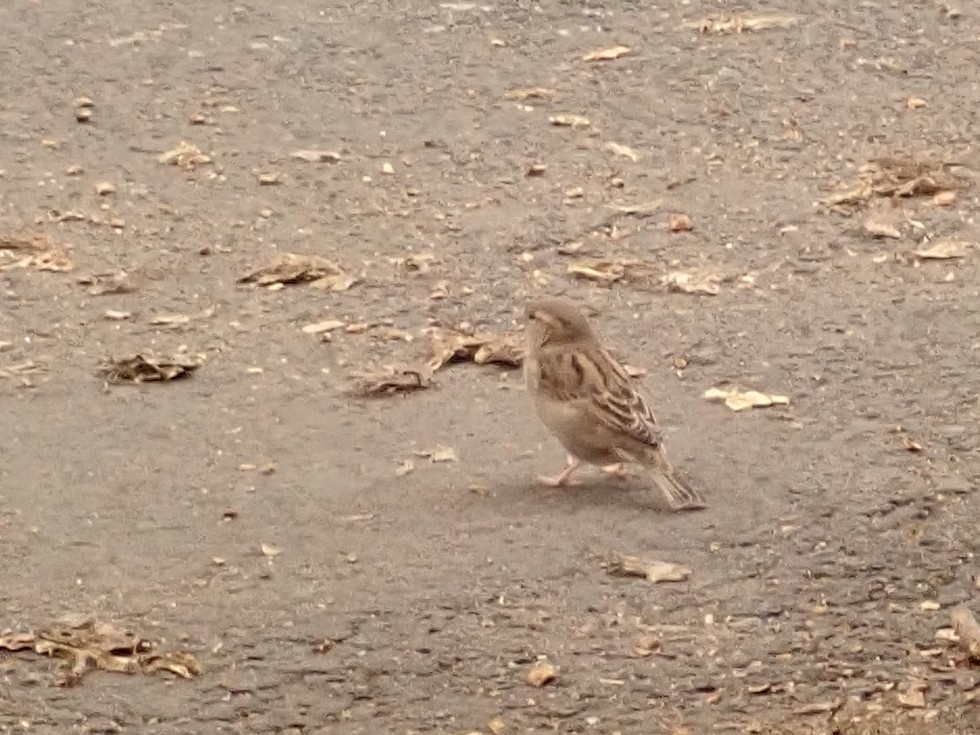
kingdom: Animalia
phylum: Chordata
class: Aves
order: Passeriformes
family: Passeridae
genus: Passer
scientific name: Passer domesticus
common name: House sparrow
